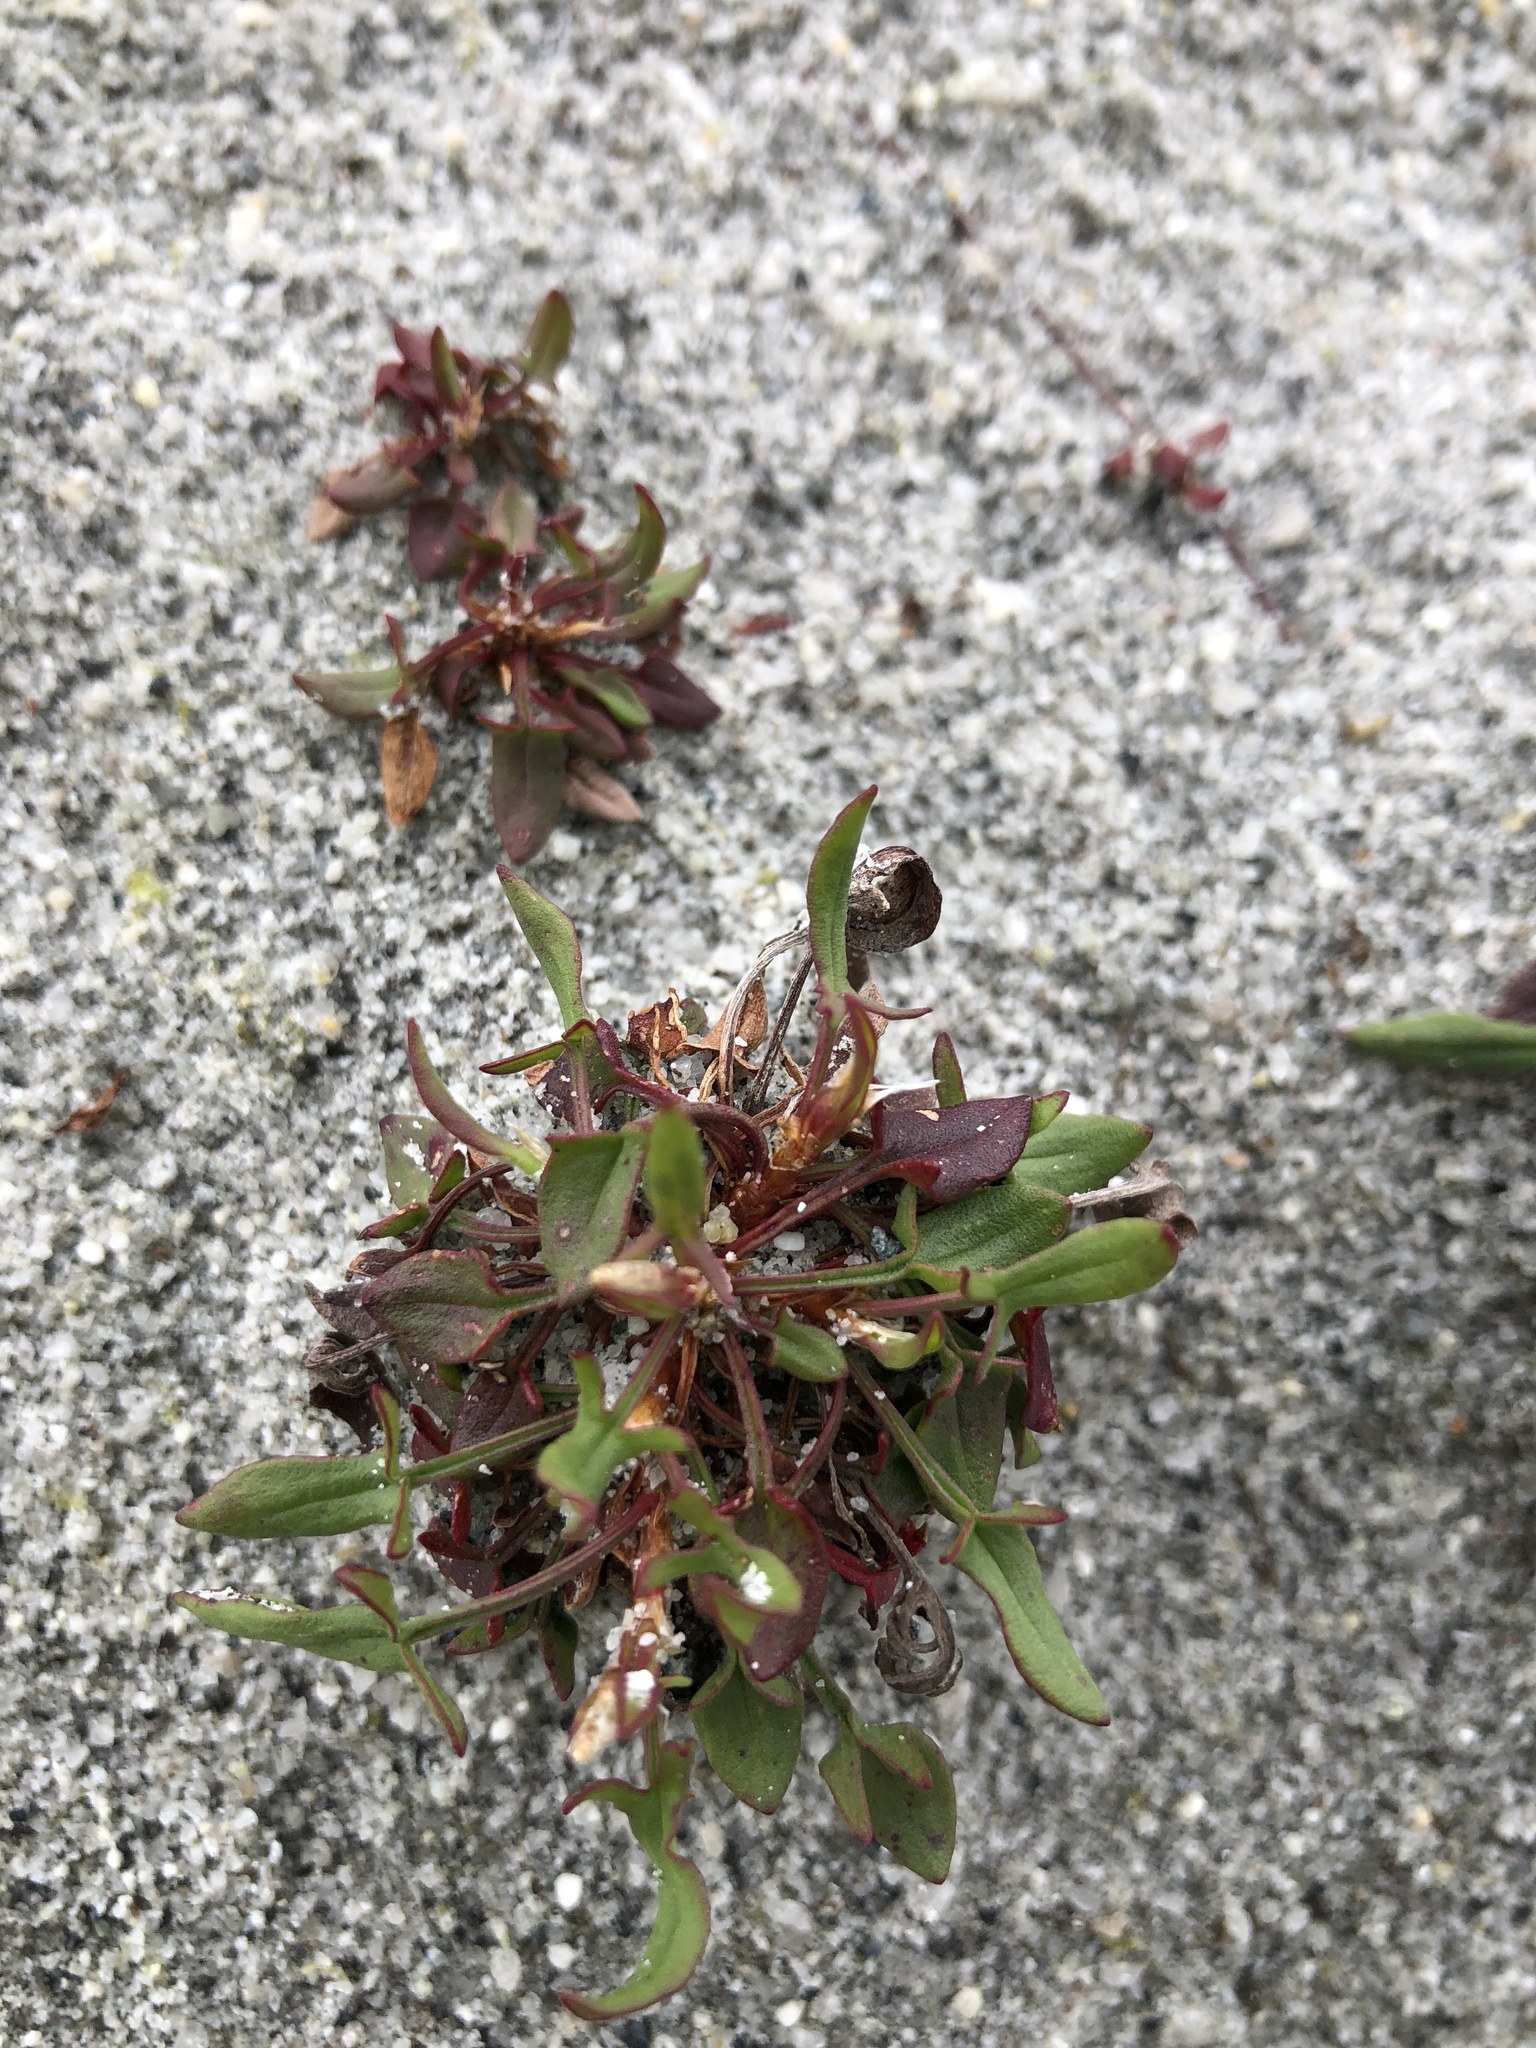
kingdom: Plantae
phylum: Tracheophyta
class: Magnoliopsida
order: Caryophyllales
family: Polygonaceae
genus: Rumex
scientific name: Rumex acetosella
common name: Common sheep sorrel
